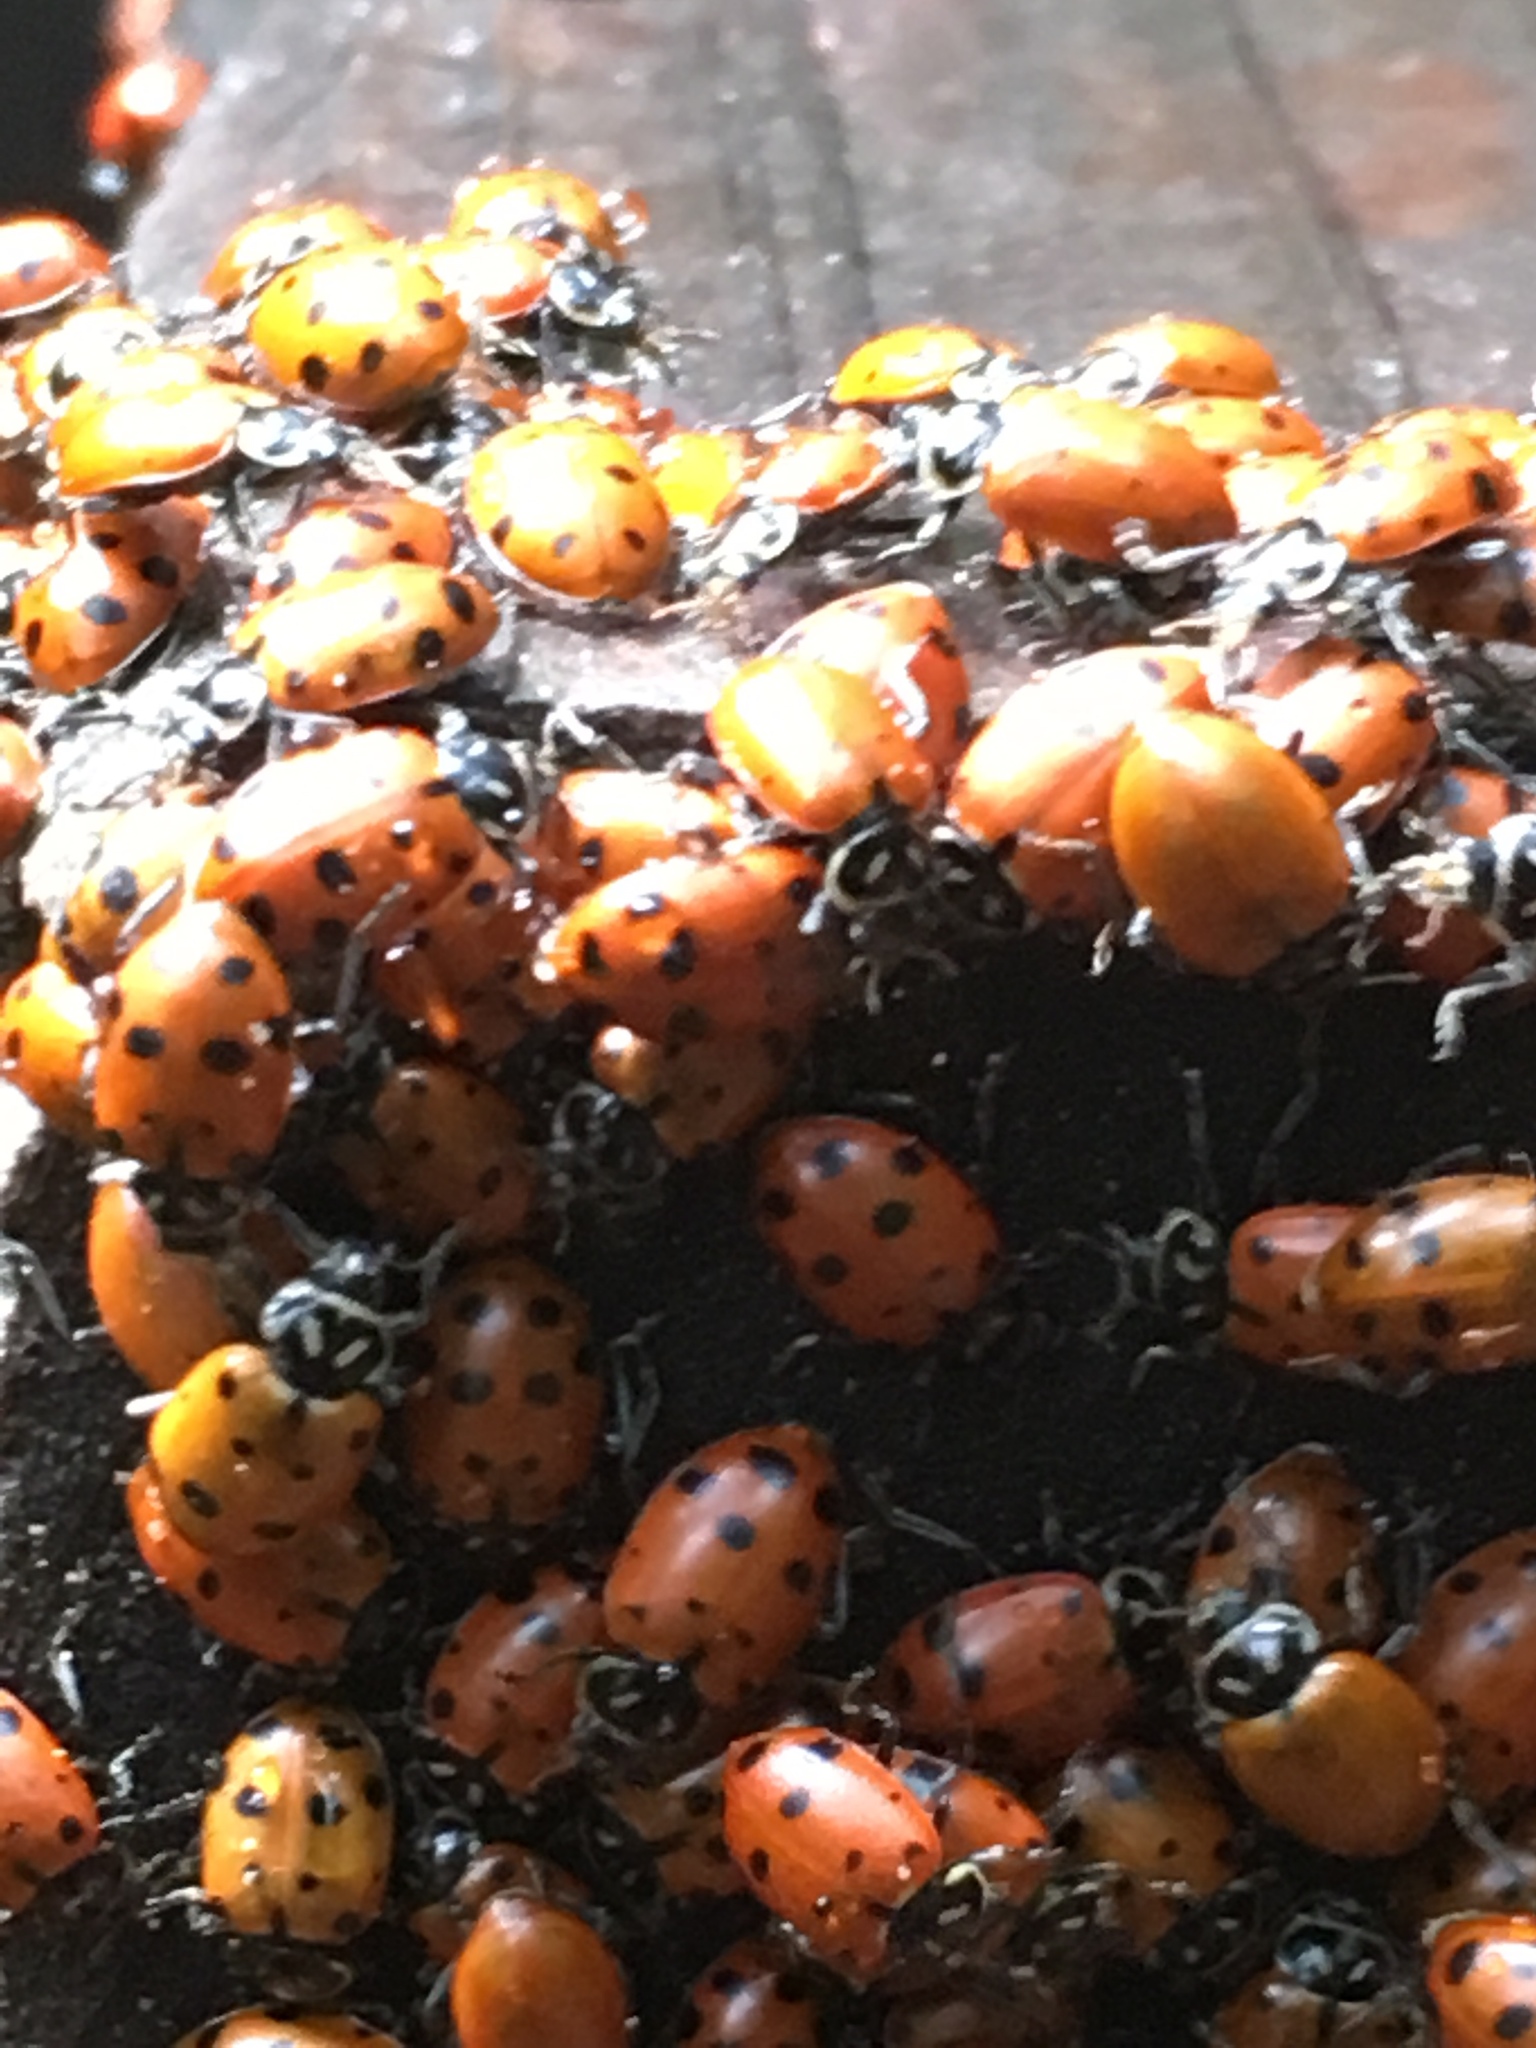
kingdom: Animalia
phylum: Arthropoda
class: Insecta
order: Coleoptera
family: Coccinellidae
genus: Hippodamia
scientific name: Hippodamia convergens
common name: Convergent lady beetle
